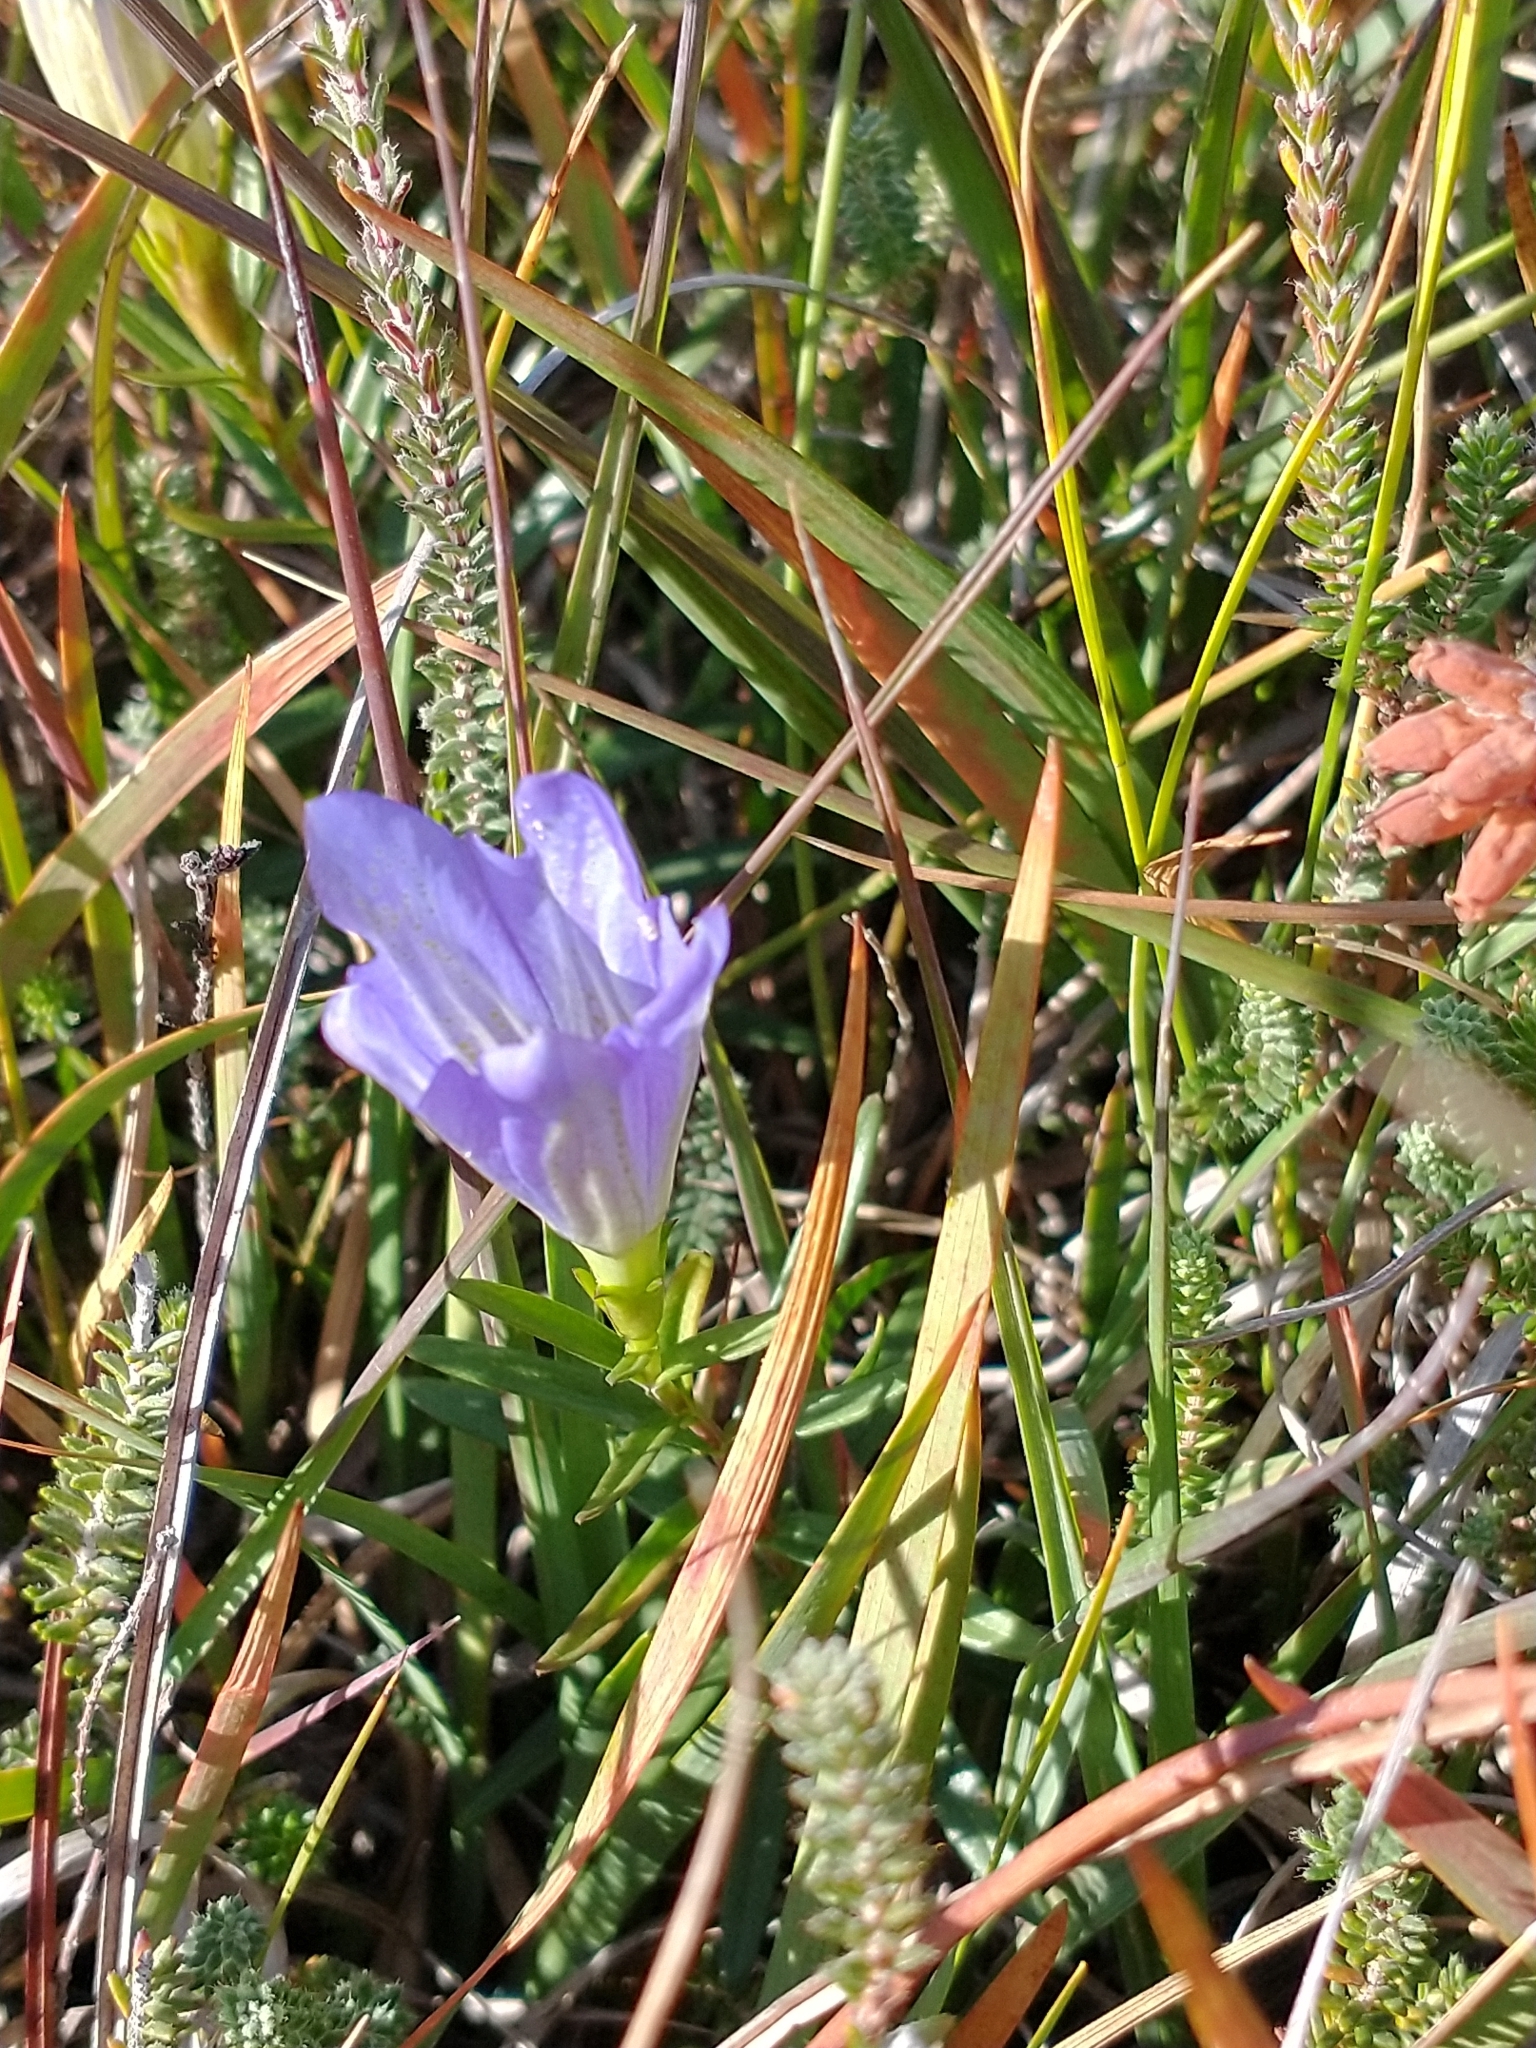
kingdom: Plantae
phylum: Tracheophyta
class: Magnoliopsida
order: Gentianales
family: Gentianaceae
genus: Gentiana
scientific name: Gentiana pneumonanthe
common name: Marsh gentian
